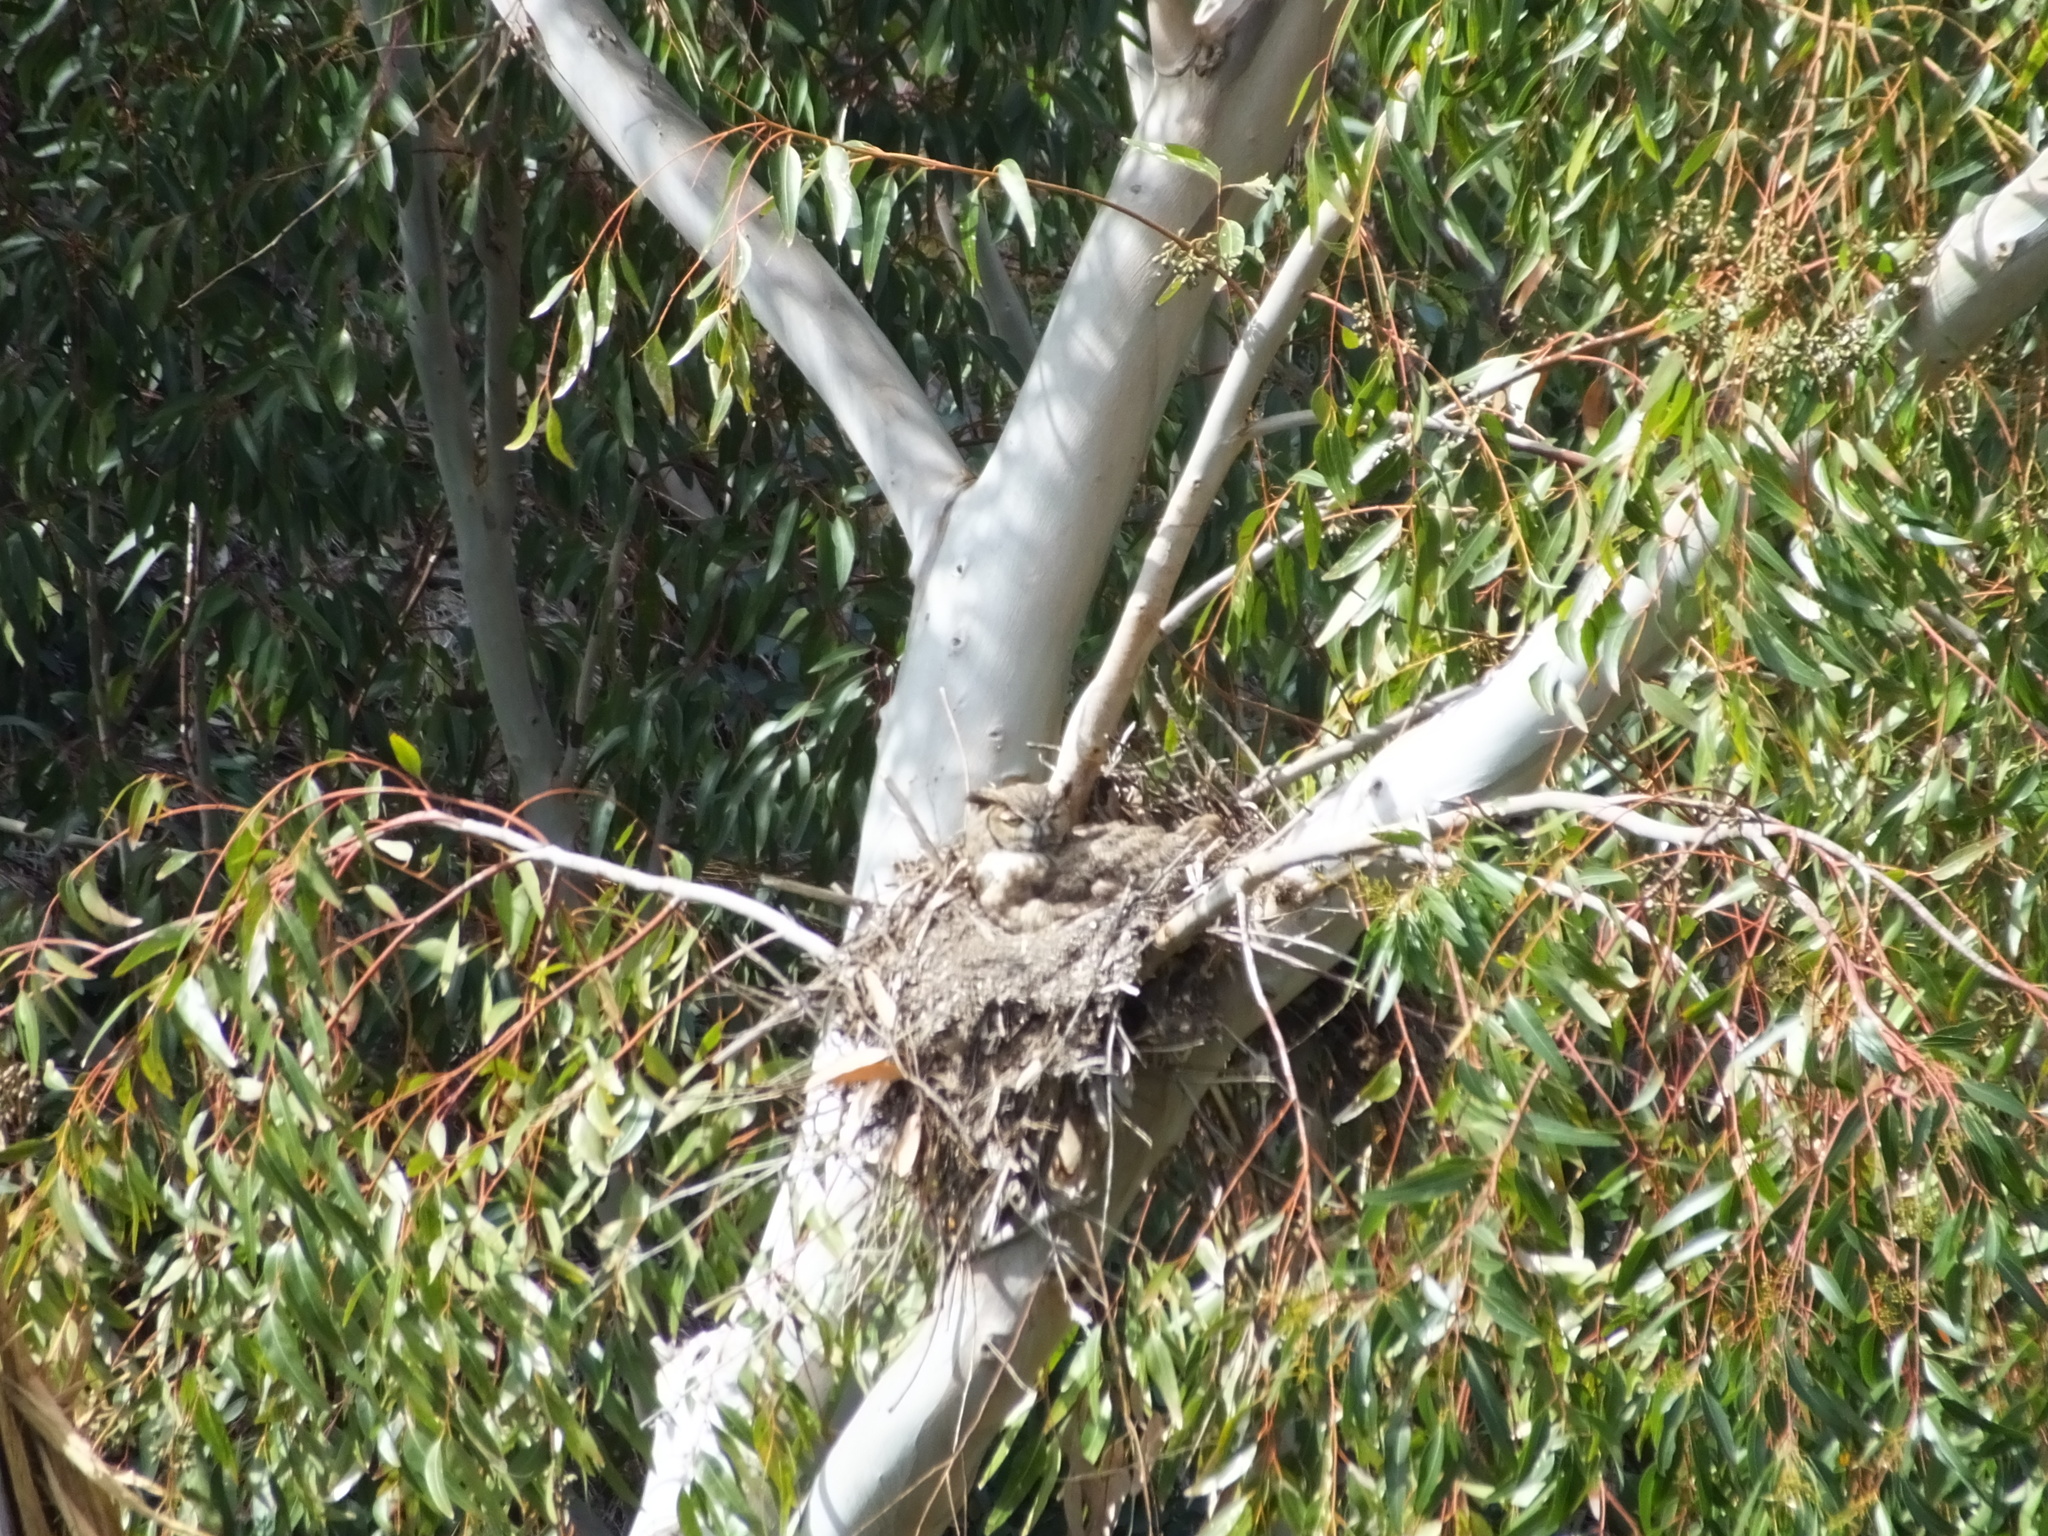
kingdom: Animalia
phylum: Chordata
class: Aves
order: Strigiformes
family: Strigidae
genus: Bubo
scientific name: Bubo virginianus
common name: Great horned owl
